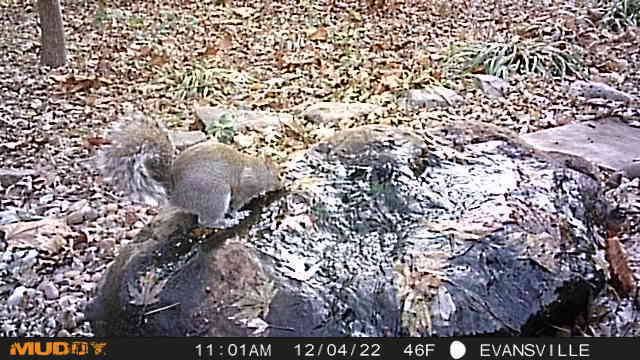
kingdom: Animalia
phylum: Chordata
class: Mammalia
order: Rodentia
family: Sciuridae
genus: Sciurus
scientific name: Sciurus carolinensis
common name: Eastern gray squirrel
